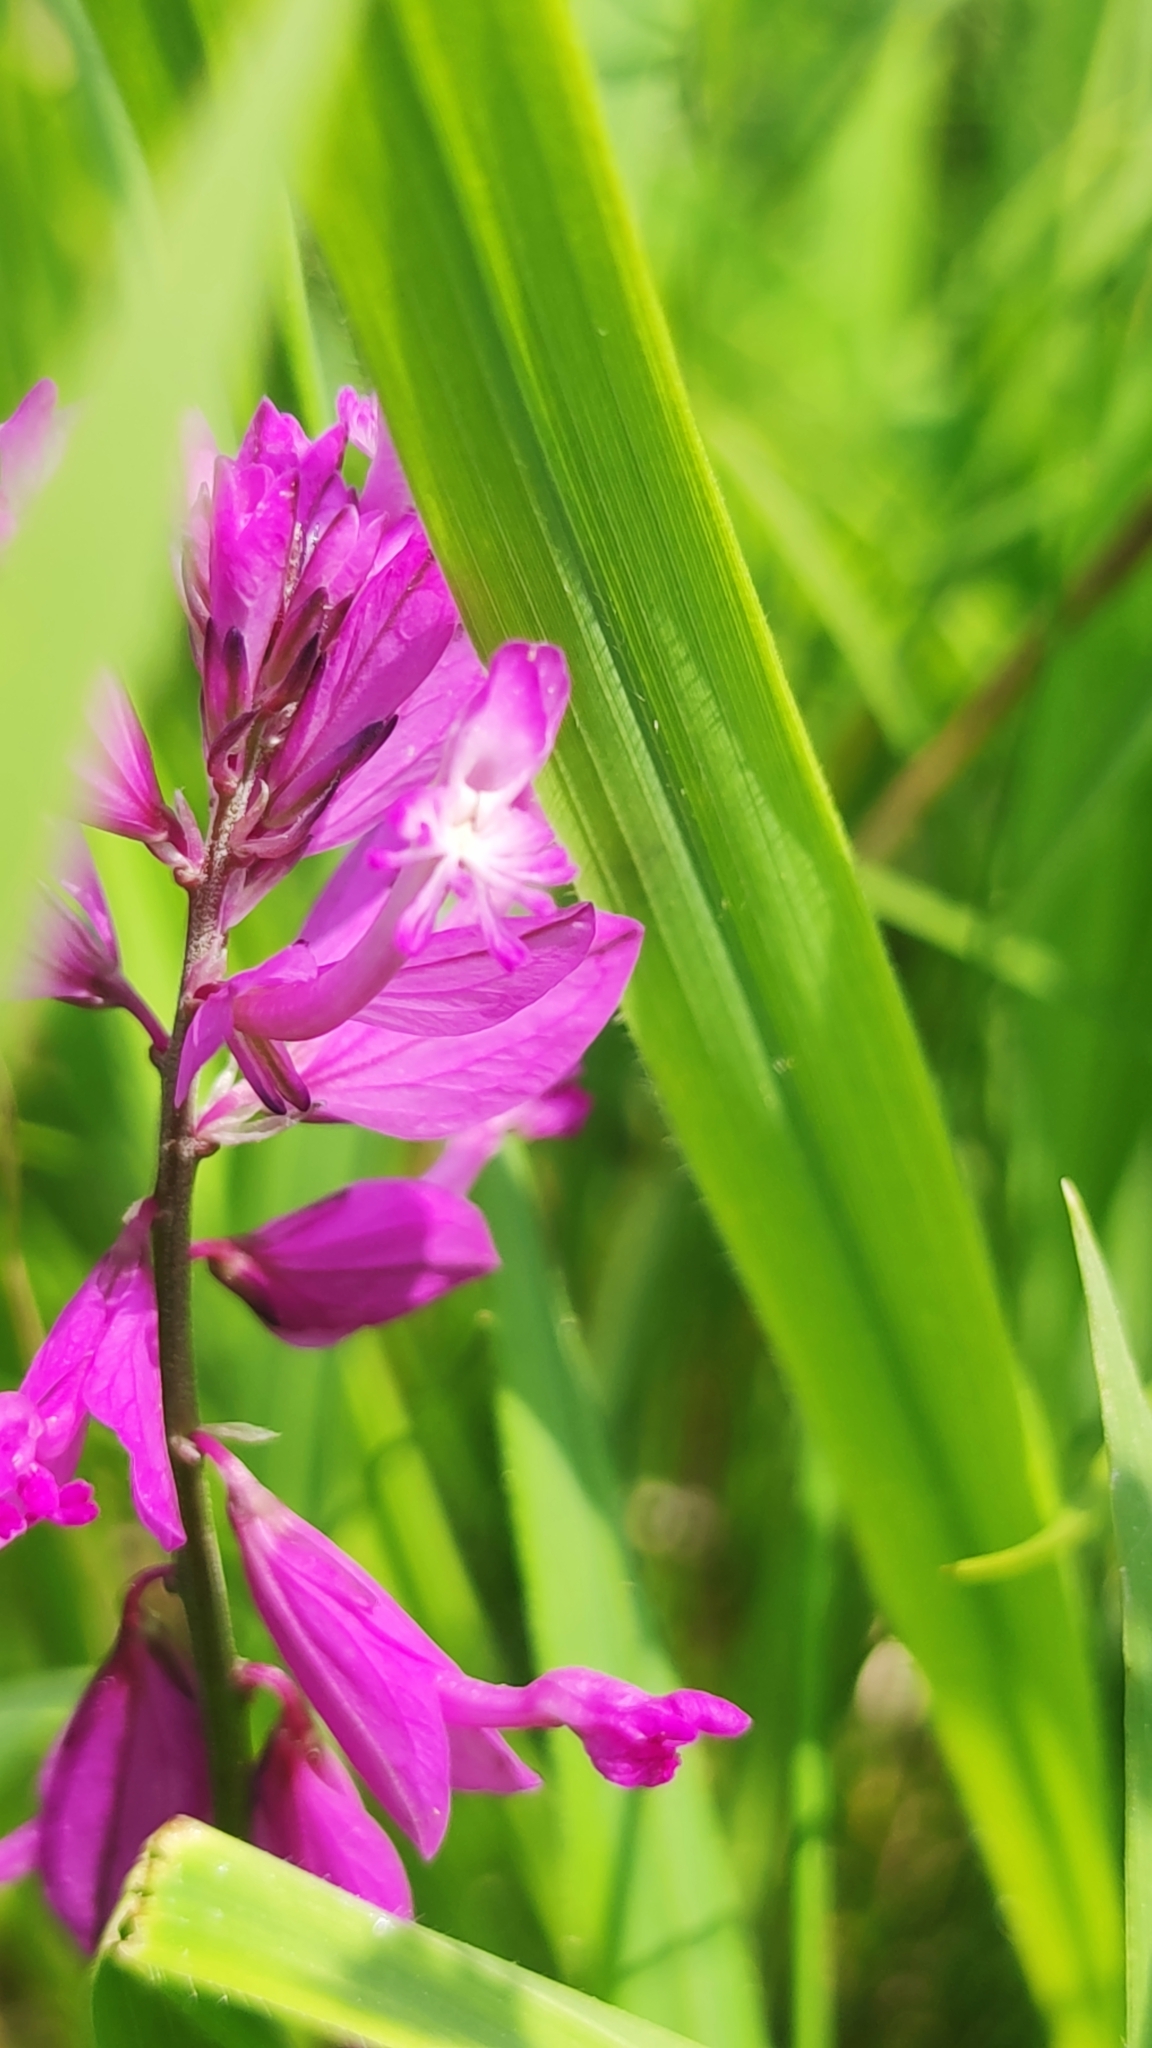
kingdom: Plantae
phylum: Tracheophyta
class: Magnoliopsida
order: Fabales
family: Polygalaceae
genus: Polygala
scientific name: Polygala major
